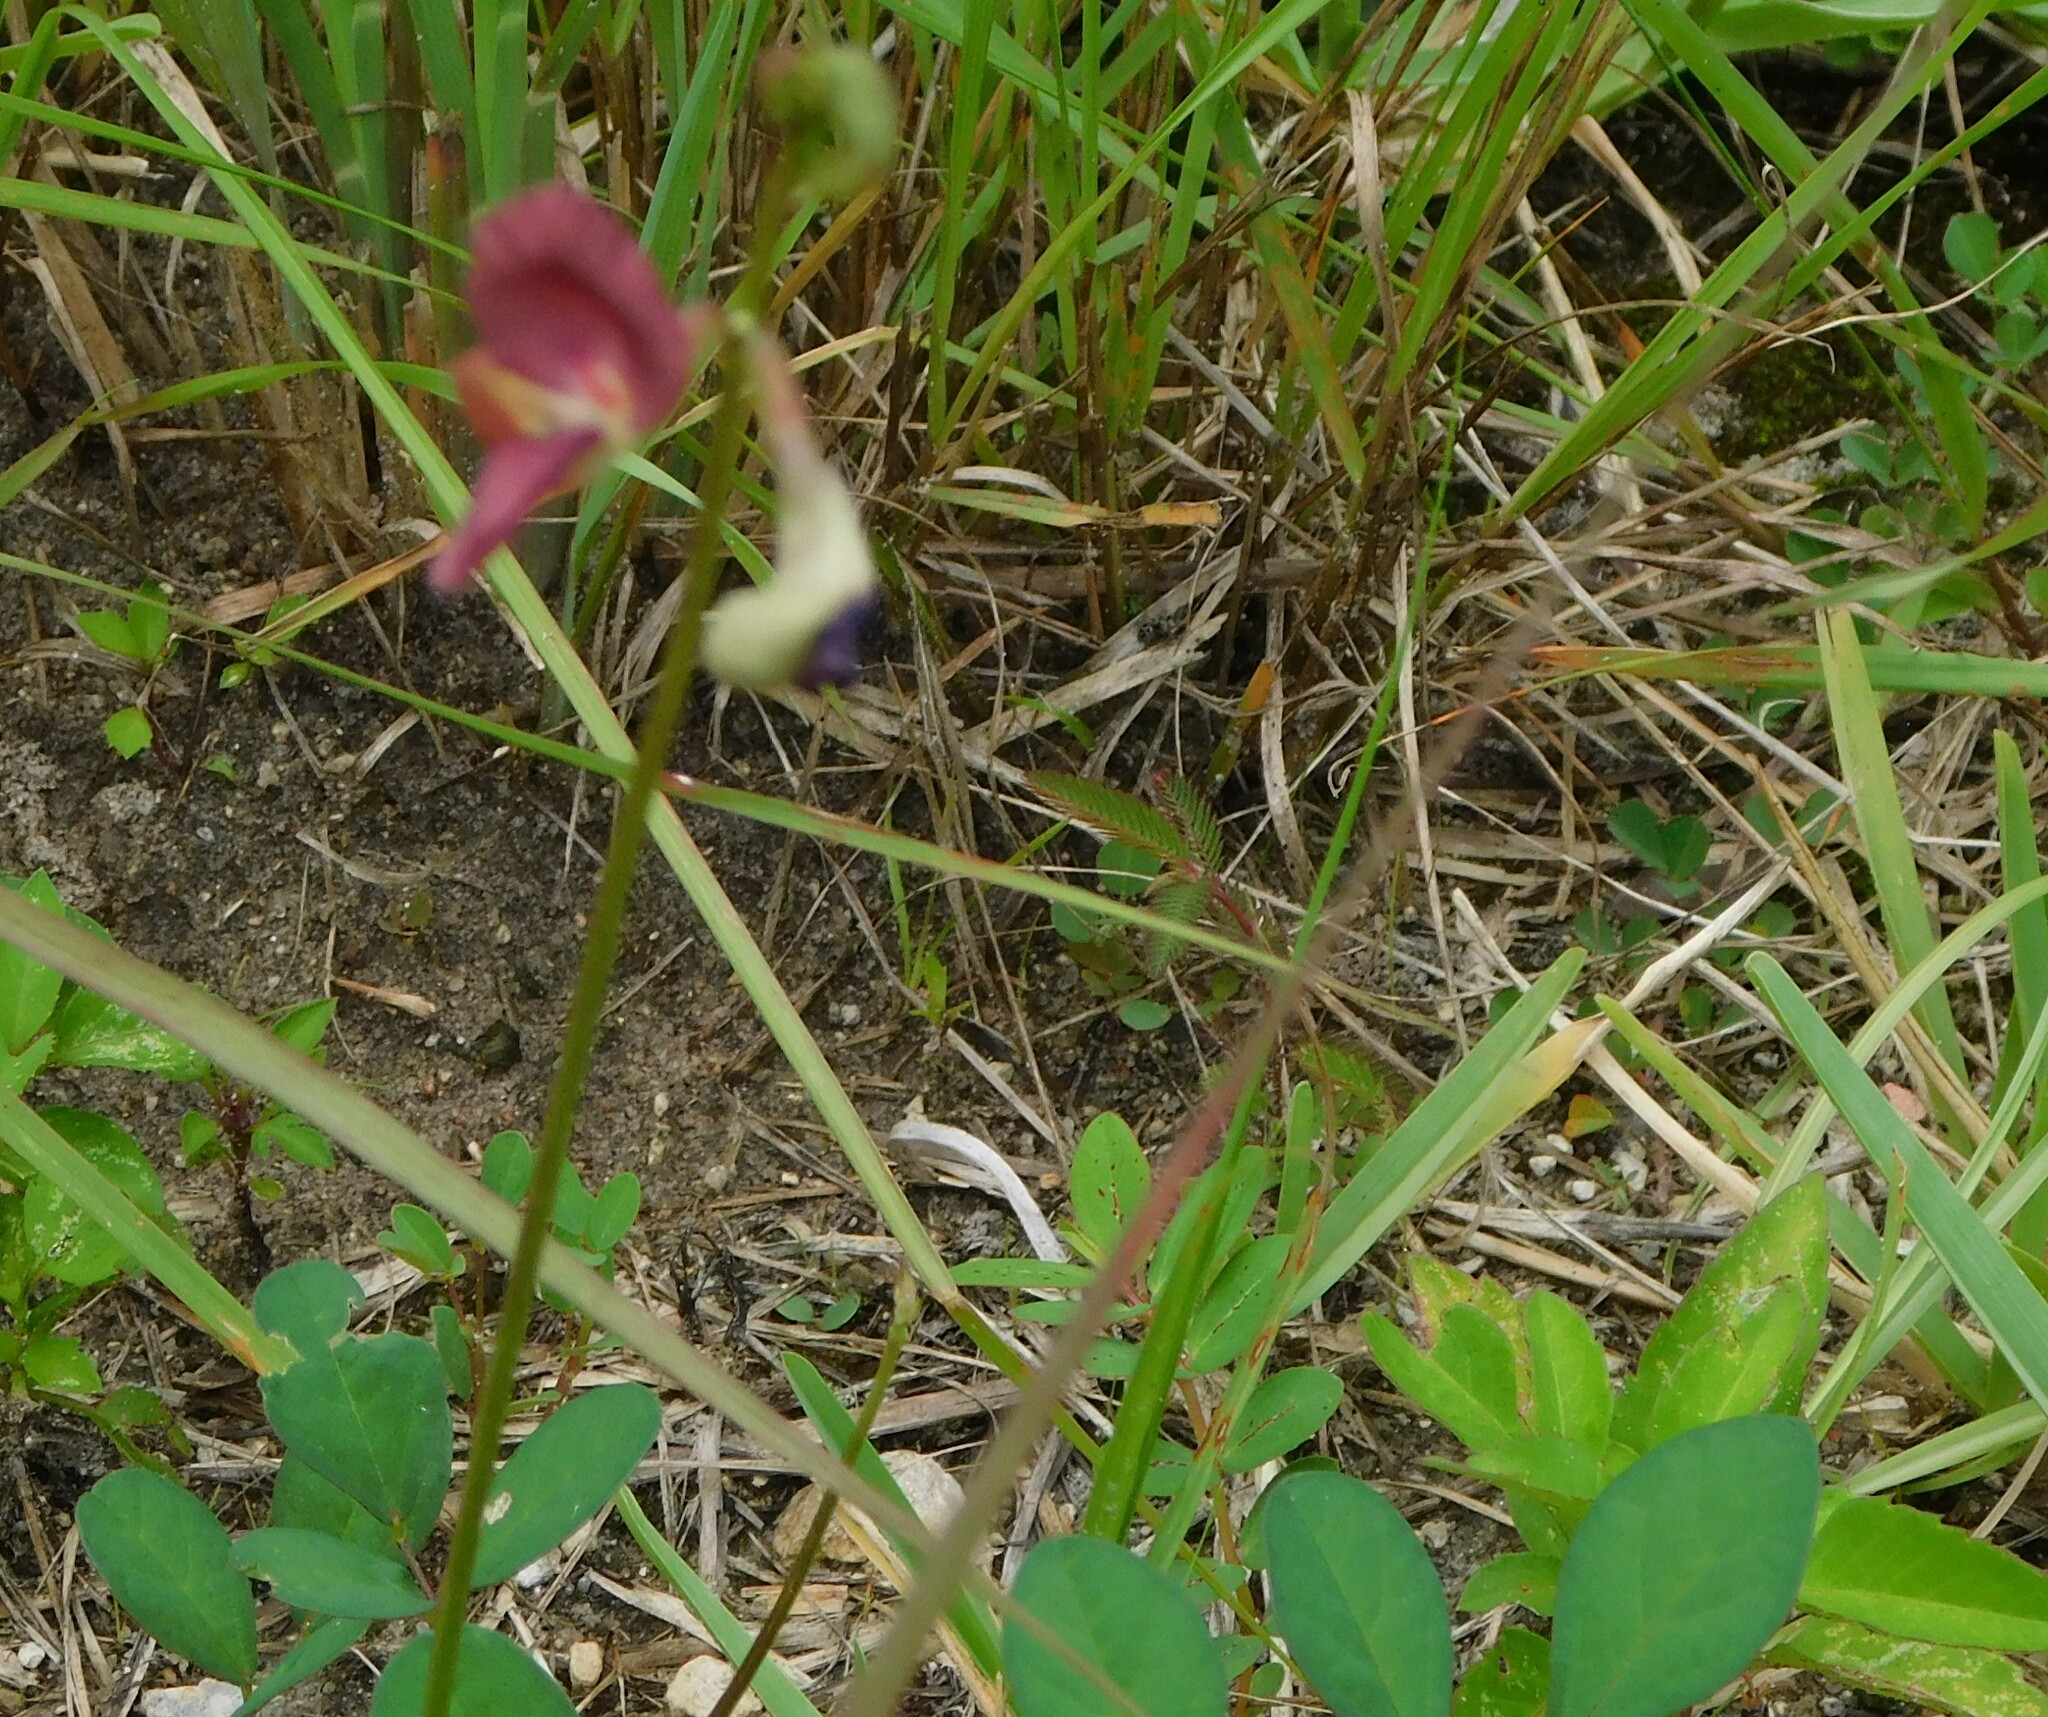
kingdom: Plantae
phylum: Tracheophyta
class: Magnoliopsida
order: Fabales
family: Fabaceae
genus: Macroptilium
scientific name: Macroptilium lathyroides
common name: Wild bushbean
